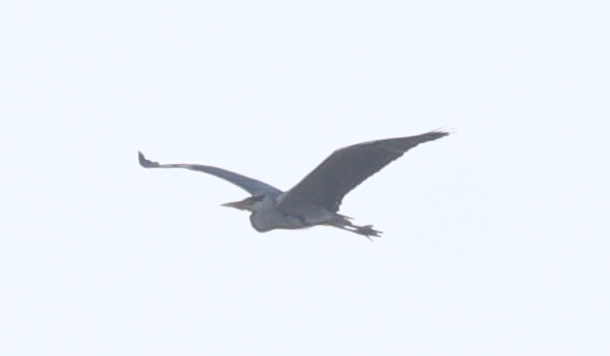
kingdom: Animalia
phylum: Chordata
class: Aves
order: Pelecaniformes
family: Ardeidae
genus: Ardea
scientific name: Ardea cinerea
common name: Grey heron
